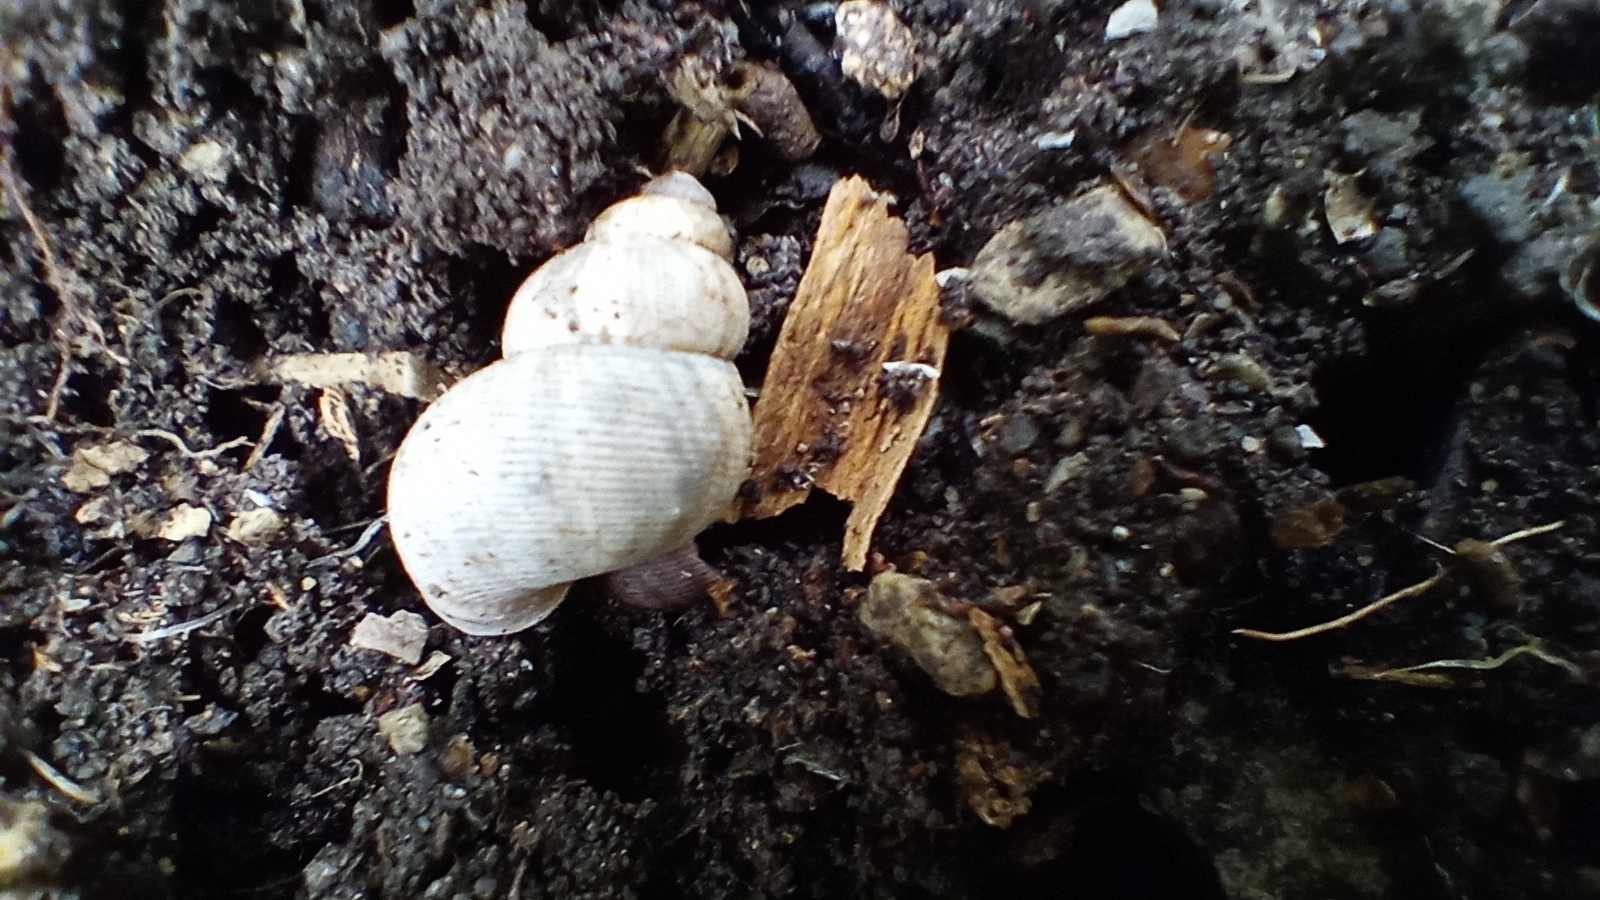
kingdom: Animalia
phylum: Mollusca
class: Gastropoda
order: Littorinimorpha
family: Pomatiidae
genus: Pomatias
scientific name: Pomatias elegans
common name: Red-mouthed snail
